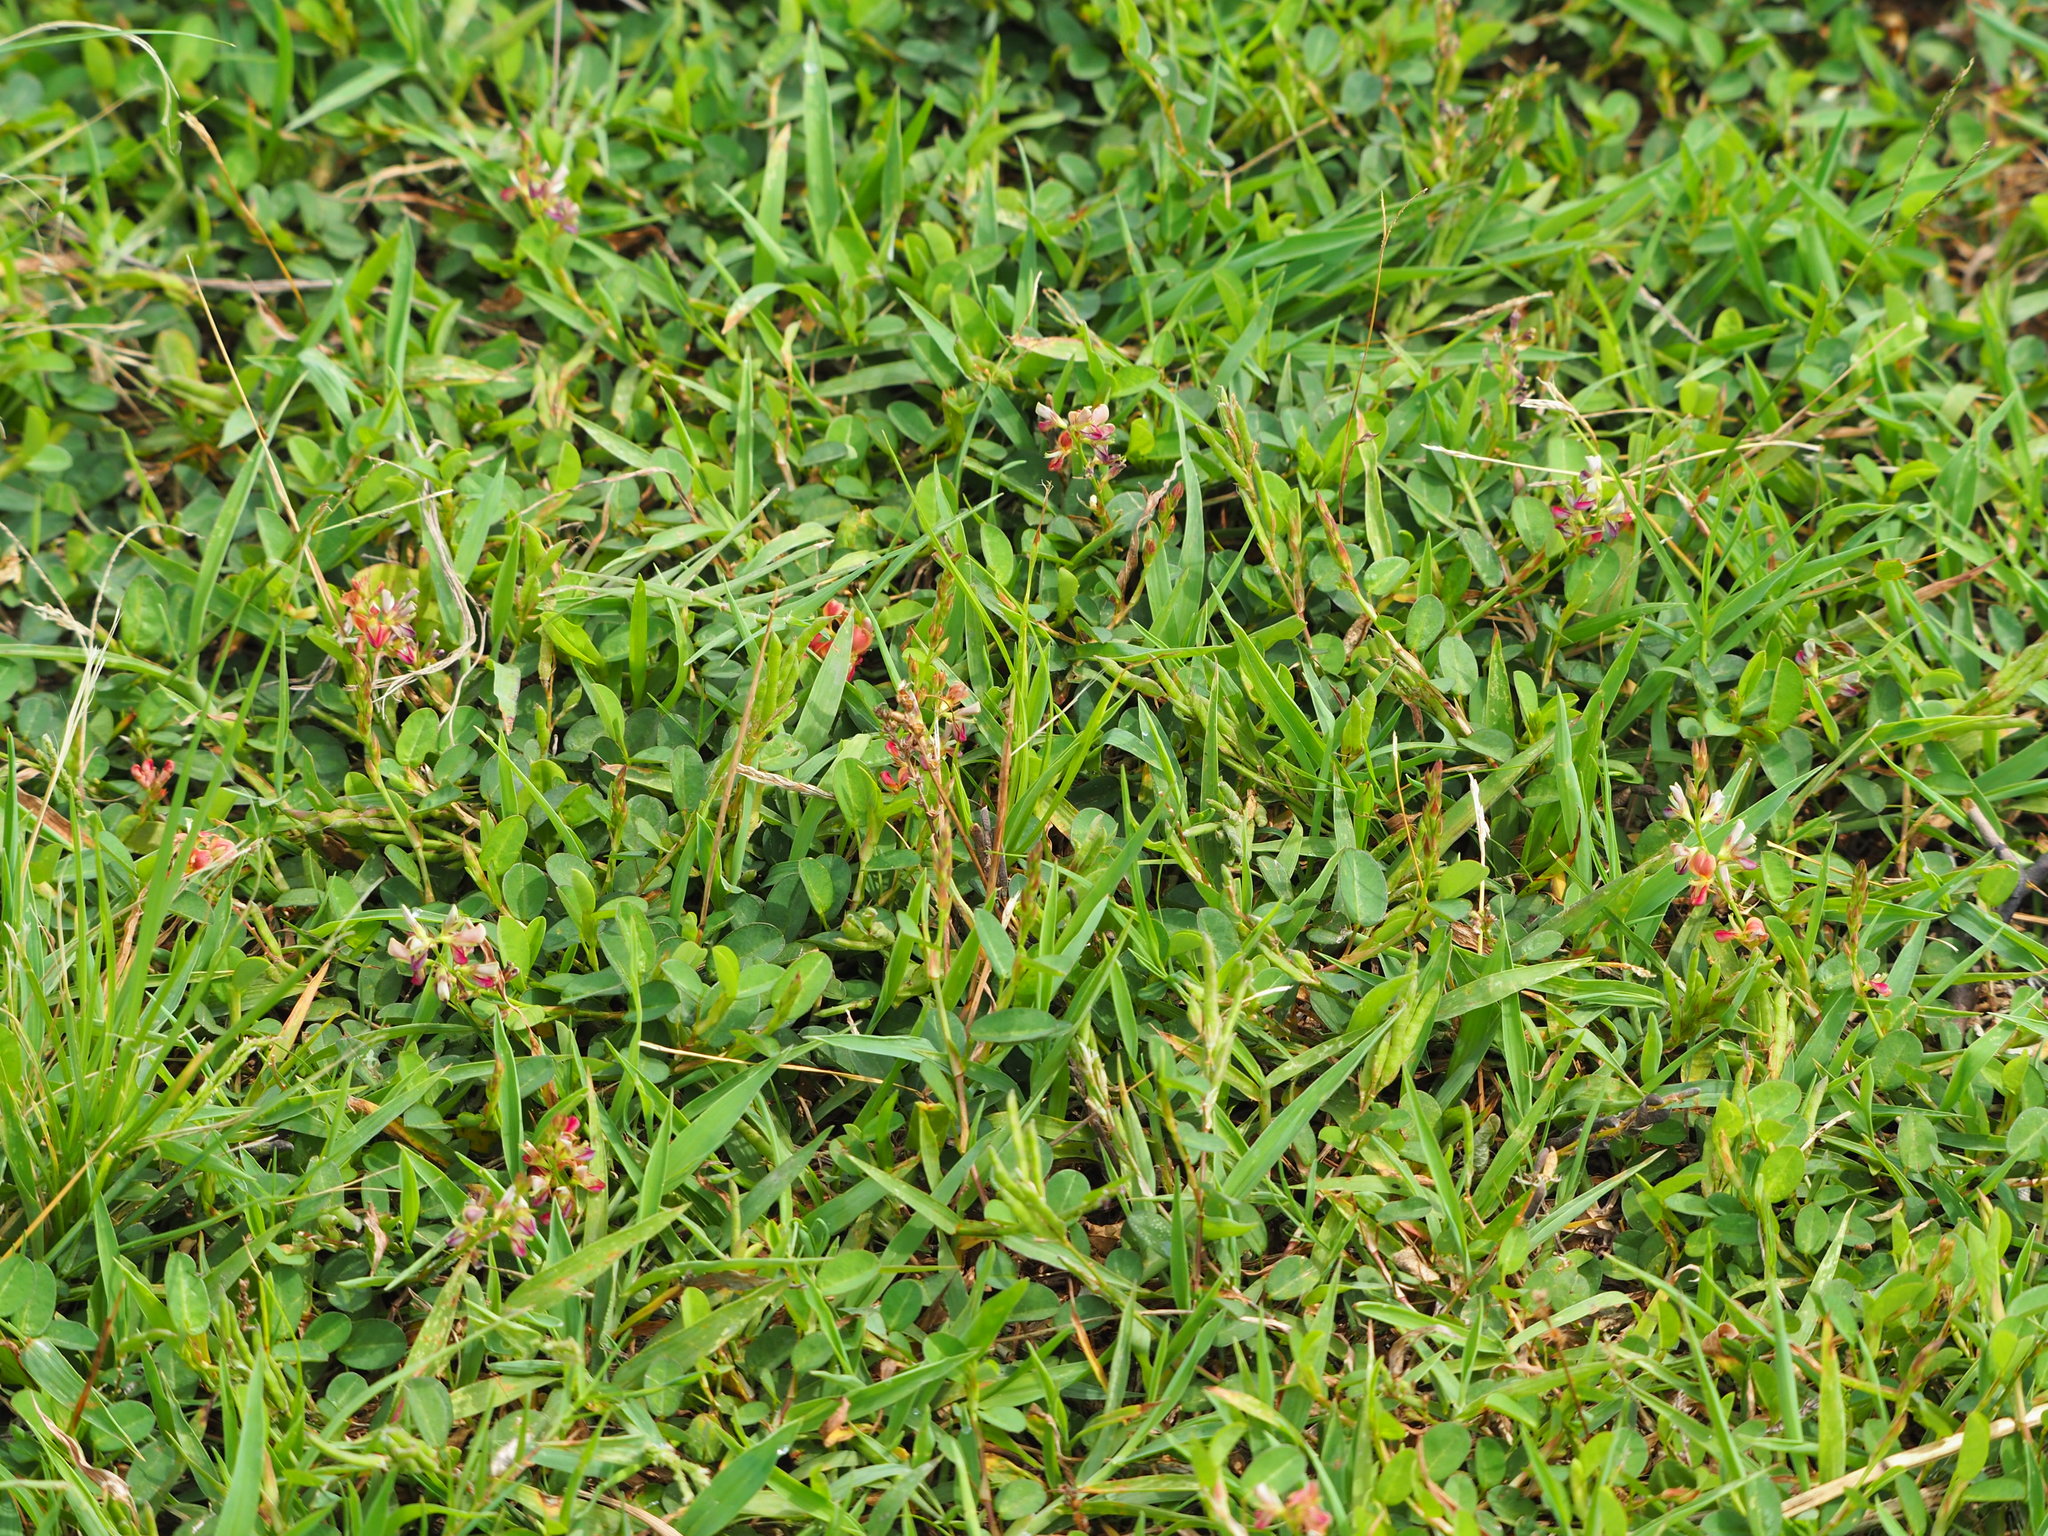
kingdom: Plantae
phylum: Tracheophyta
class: Magnoliopsida
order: Fabales
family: Fabaceae
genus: Alysicarpus
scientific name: Alysicarpus vaginalis
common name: White moneywort
